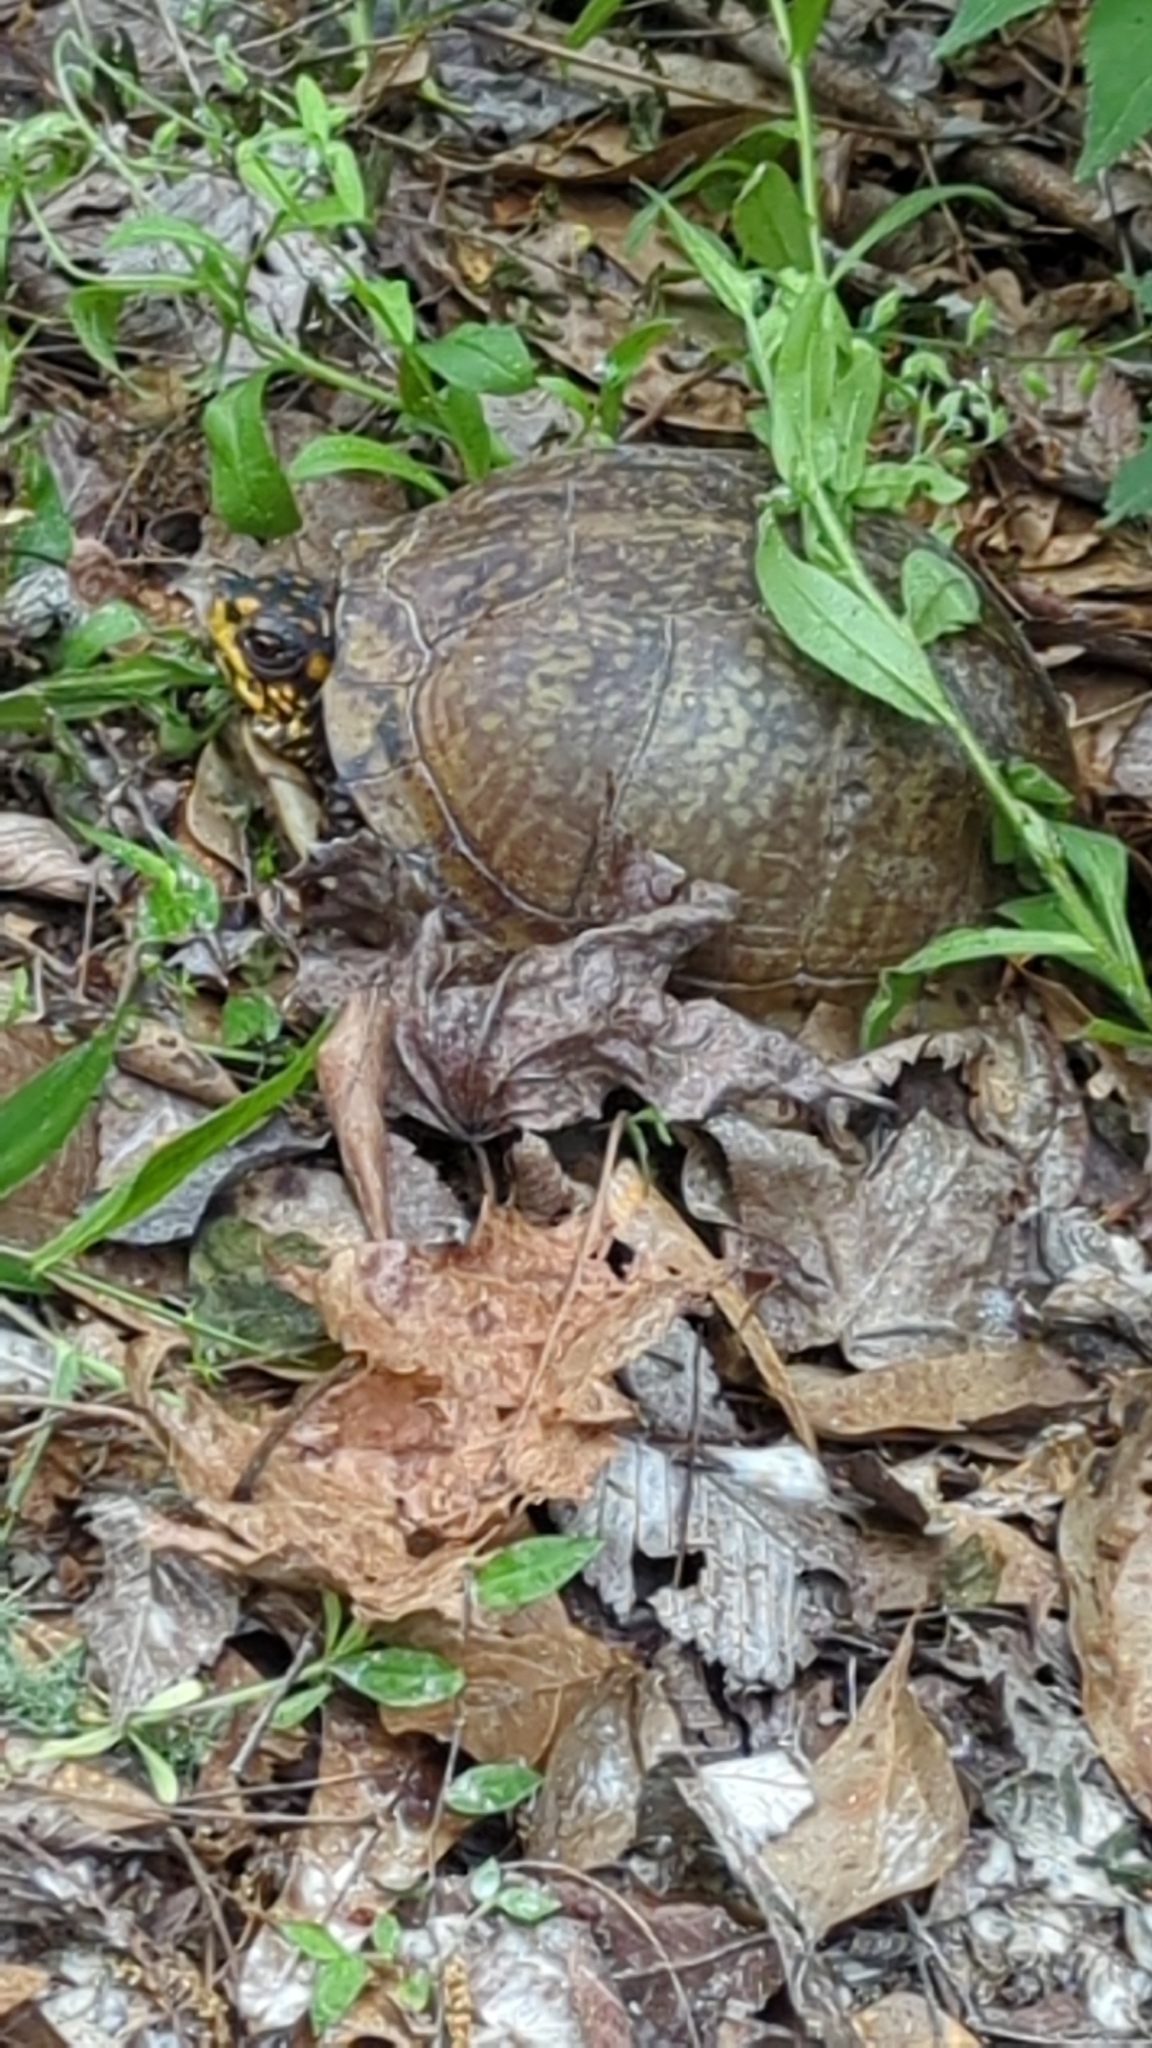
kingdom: Animalia
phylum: Chordata
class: Testudines
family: Emydidae
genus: Terrapene
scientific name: Terrapene carolina
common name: Common box turtle
